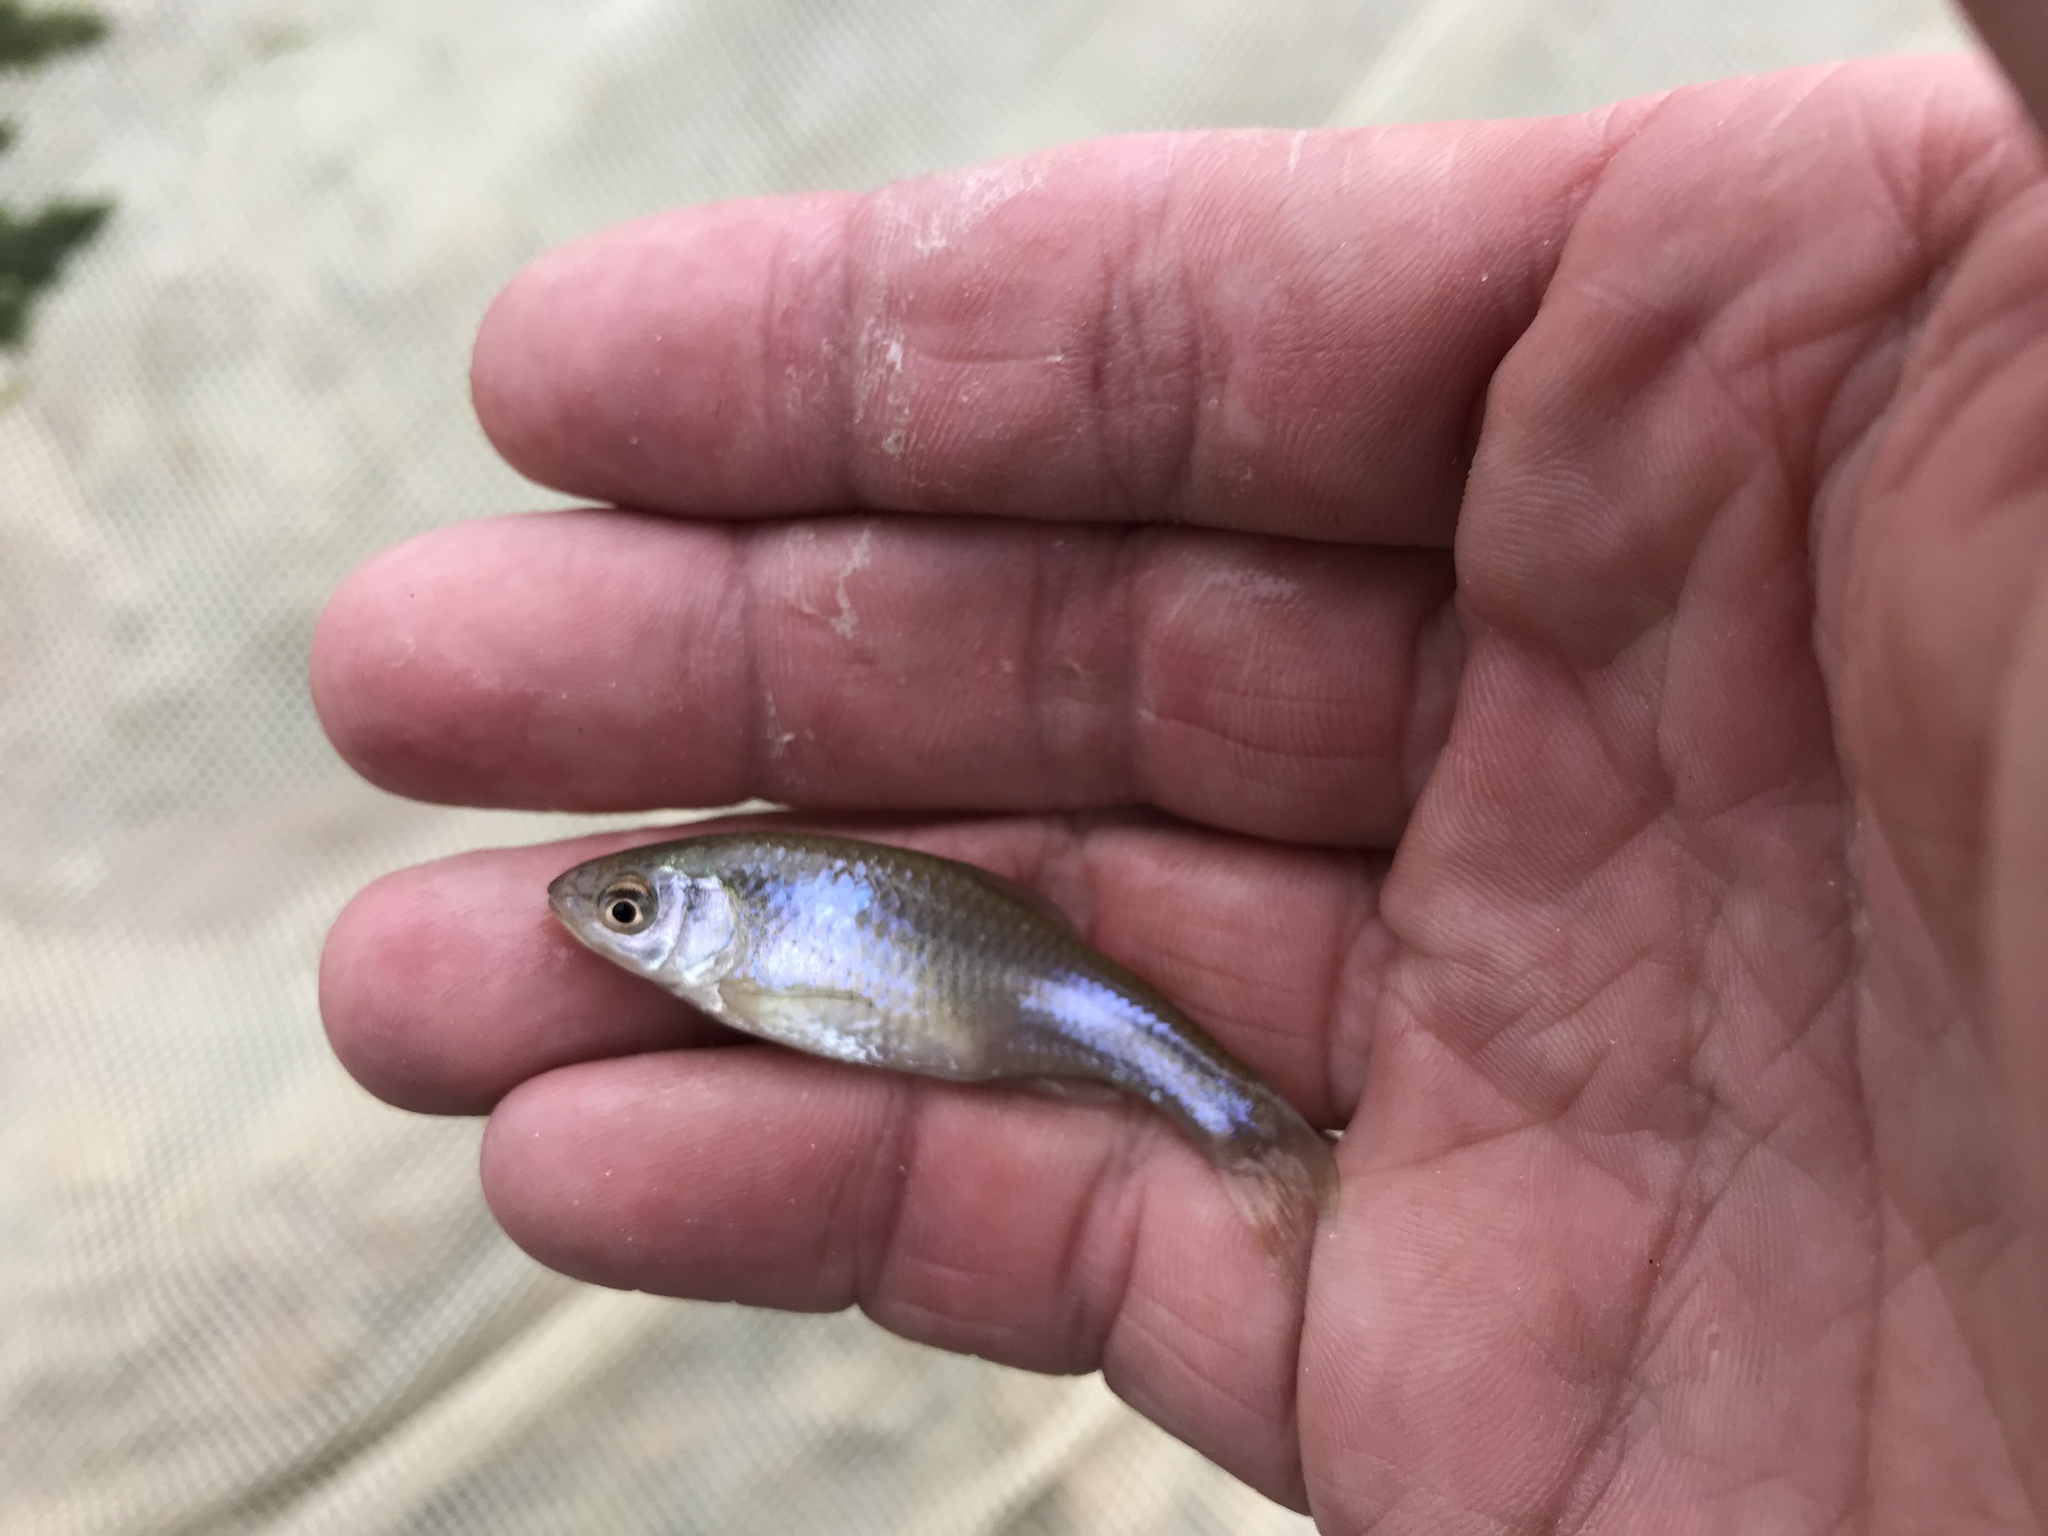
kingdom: Animalia
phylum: Chordata
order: Cypriniformes
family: Cyprinidae
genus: Cyprinella
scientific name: Cyprinella lutrensis
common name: Red shiner
